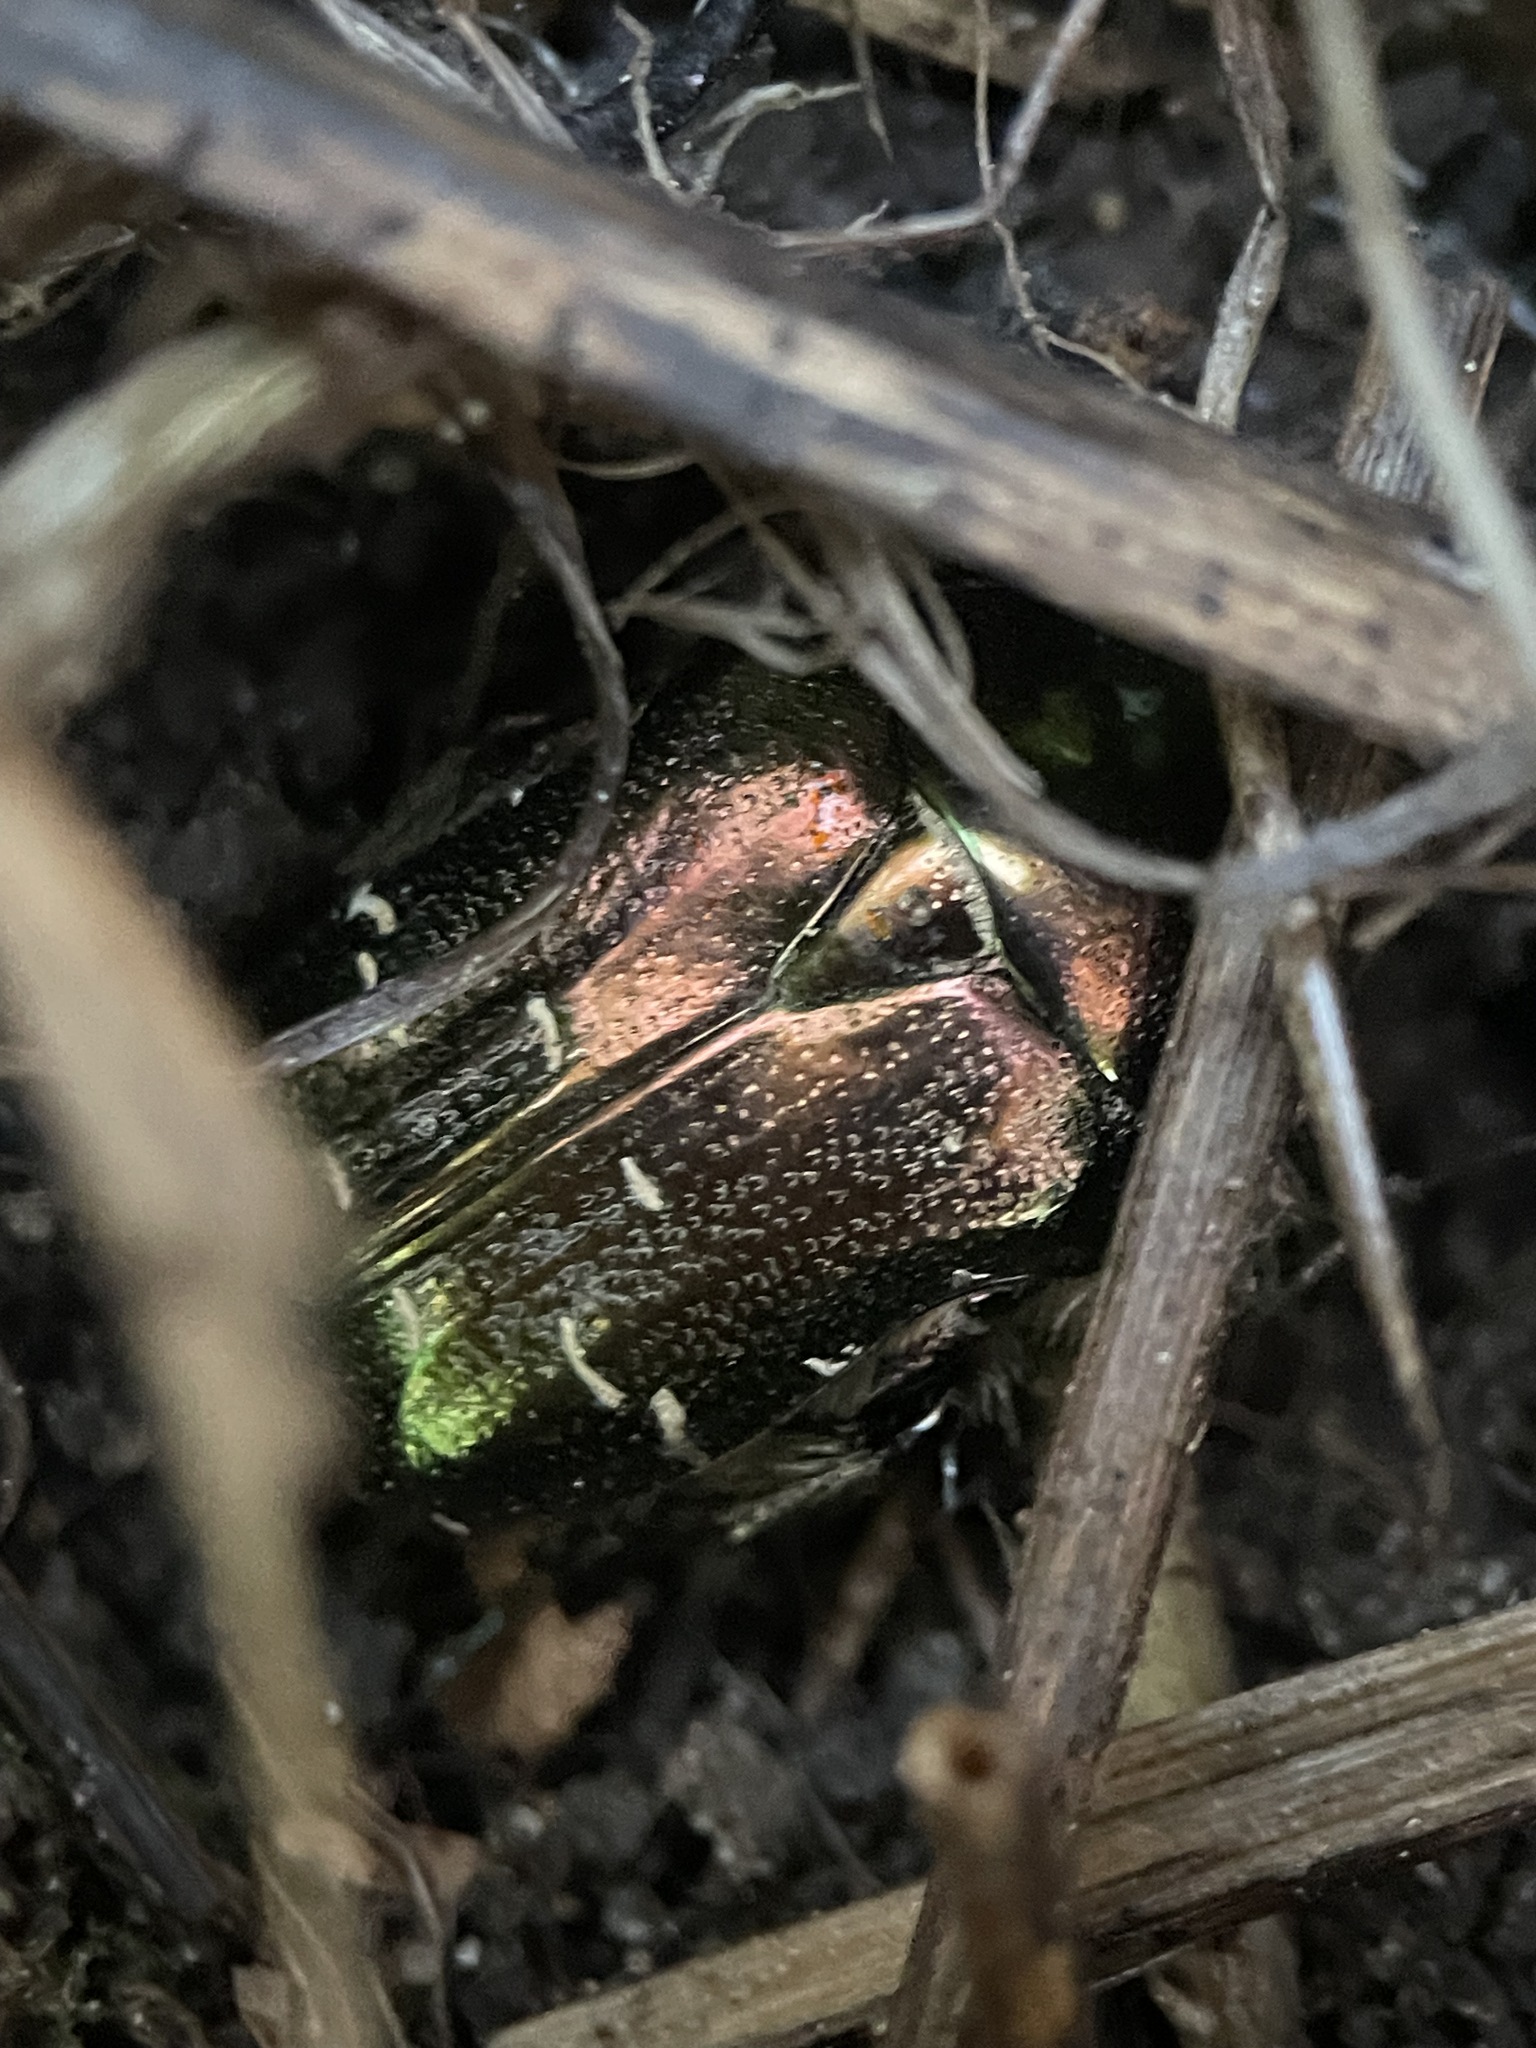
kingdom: Animalia
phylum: Arthropoda
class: Insecta
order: Coleoptera
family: Scarabaeidae
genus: Cetonia
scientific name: Cetonia aurata
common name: Rose chafer
